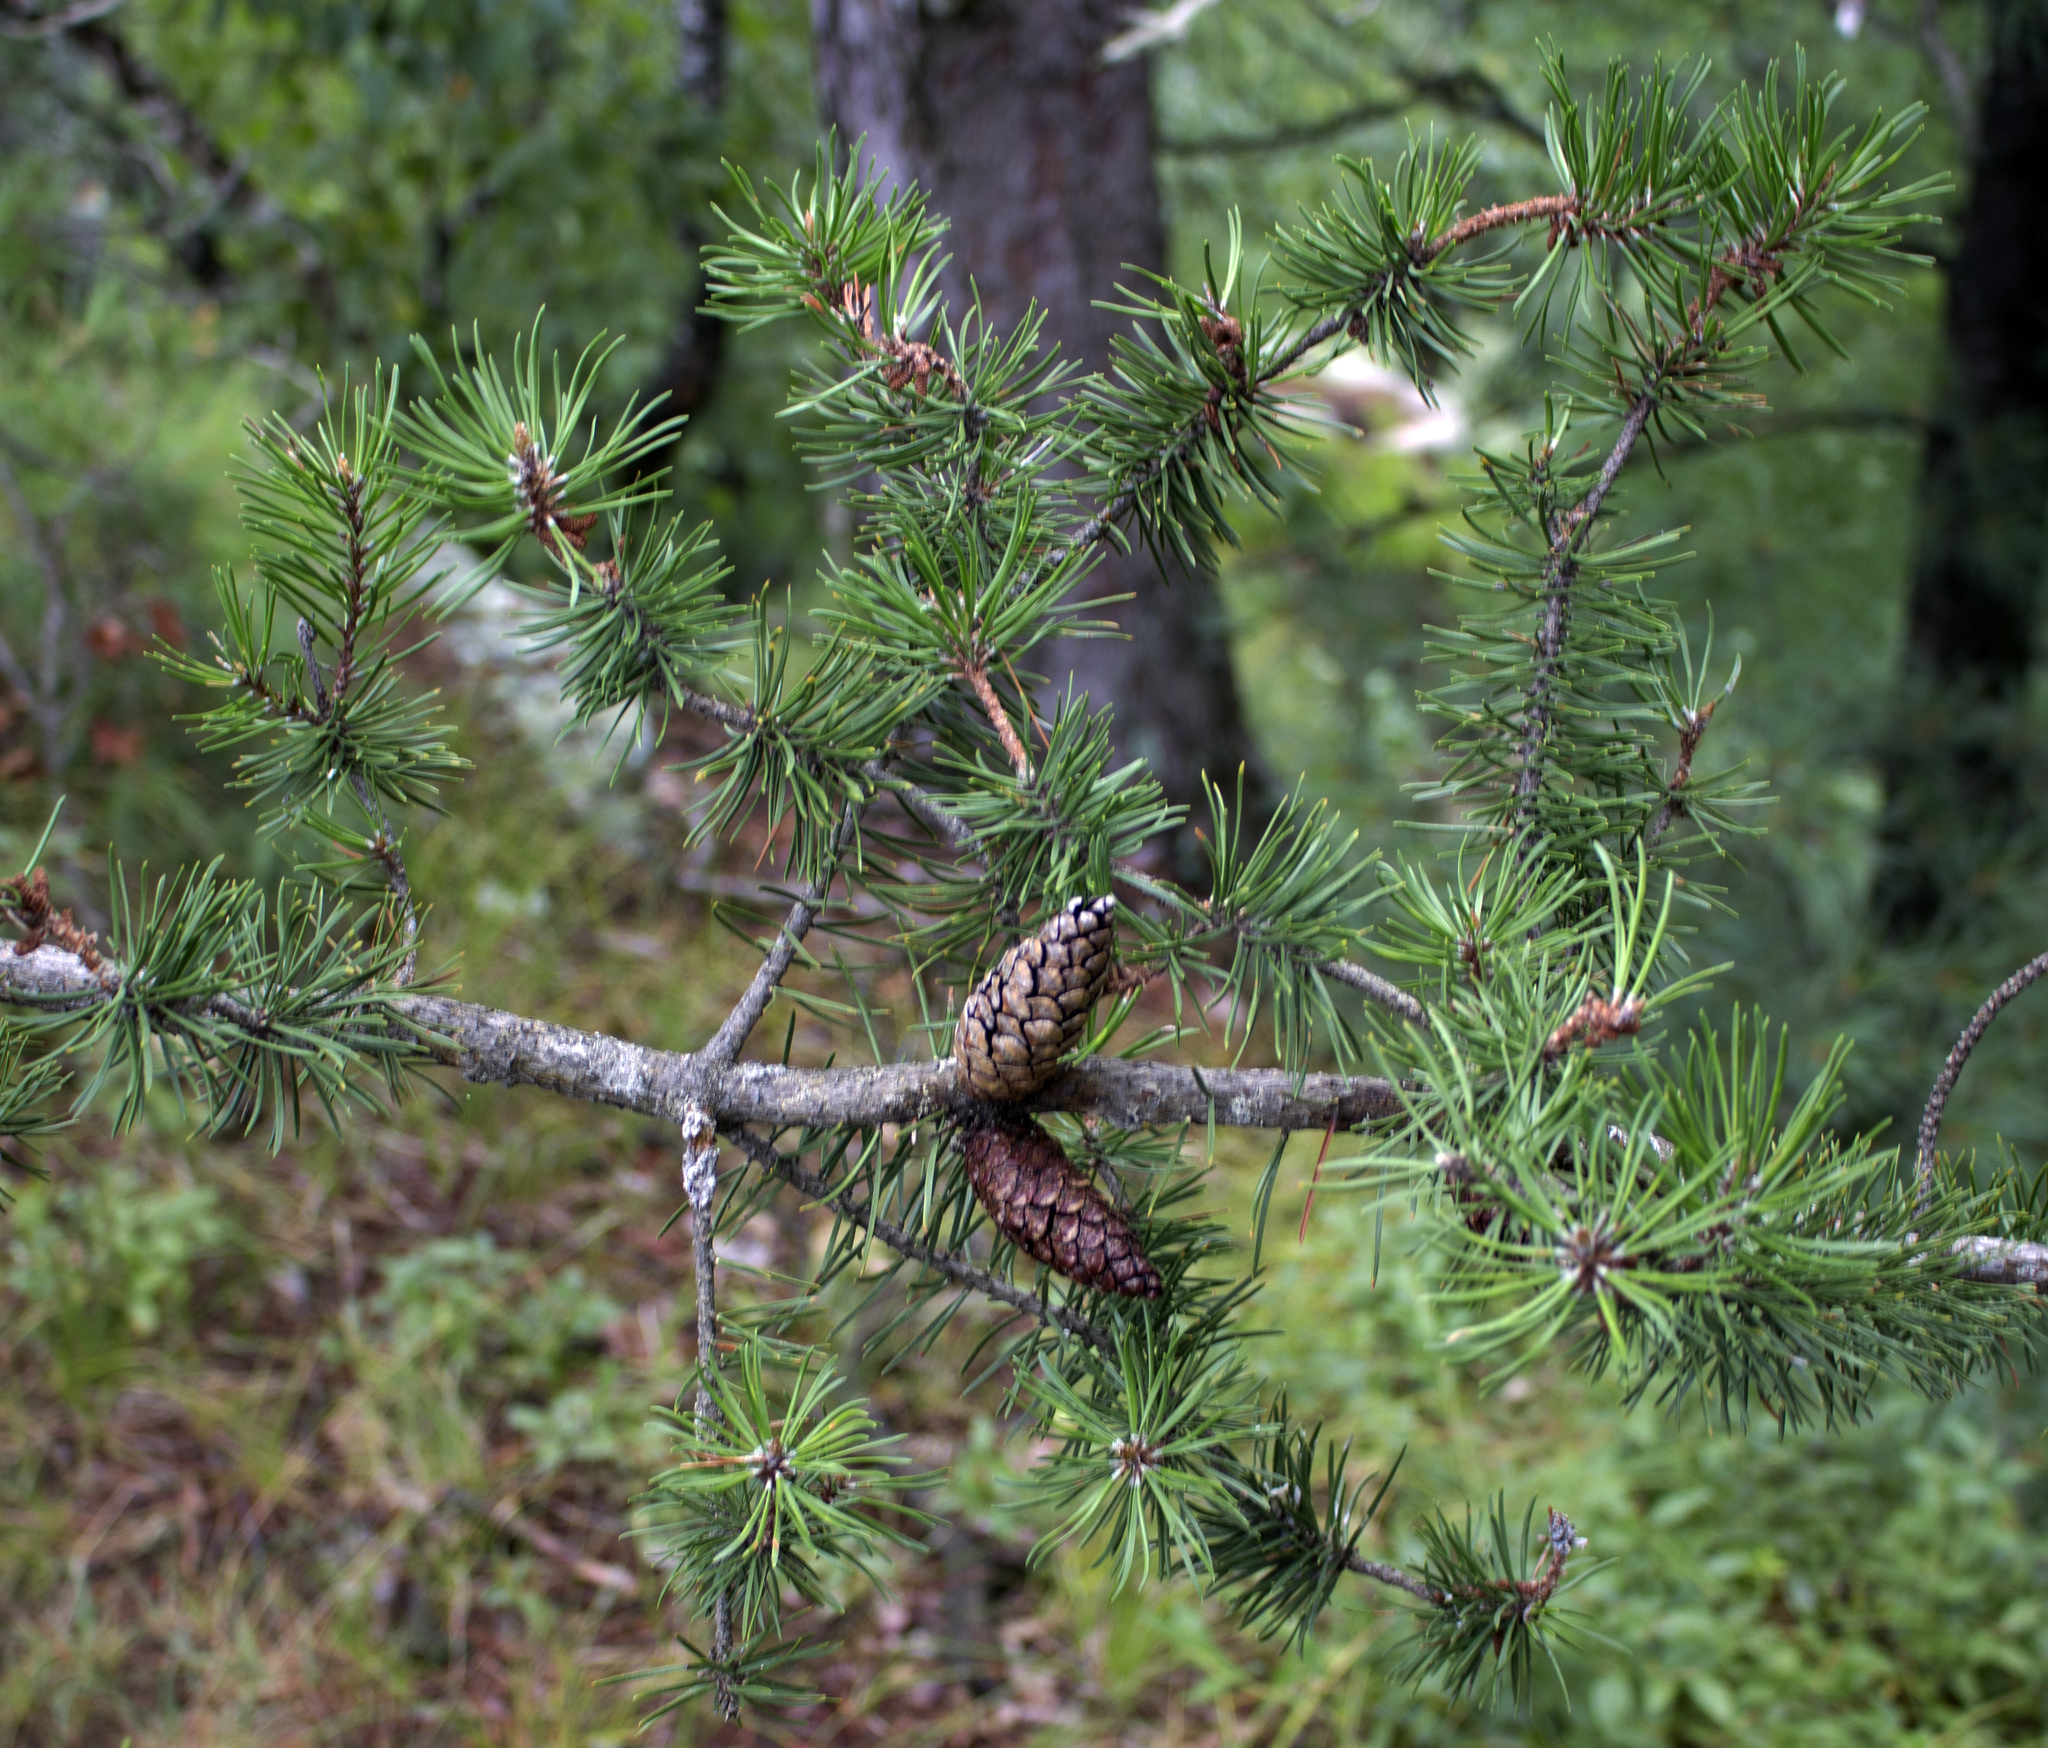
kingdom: Plantae
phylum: Tracheophyta
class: Pinopsida
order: Pinales
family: Pinaceae
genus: Pinus
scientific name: Pinus banksiana
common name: Jack pine
